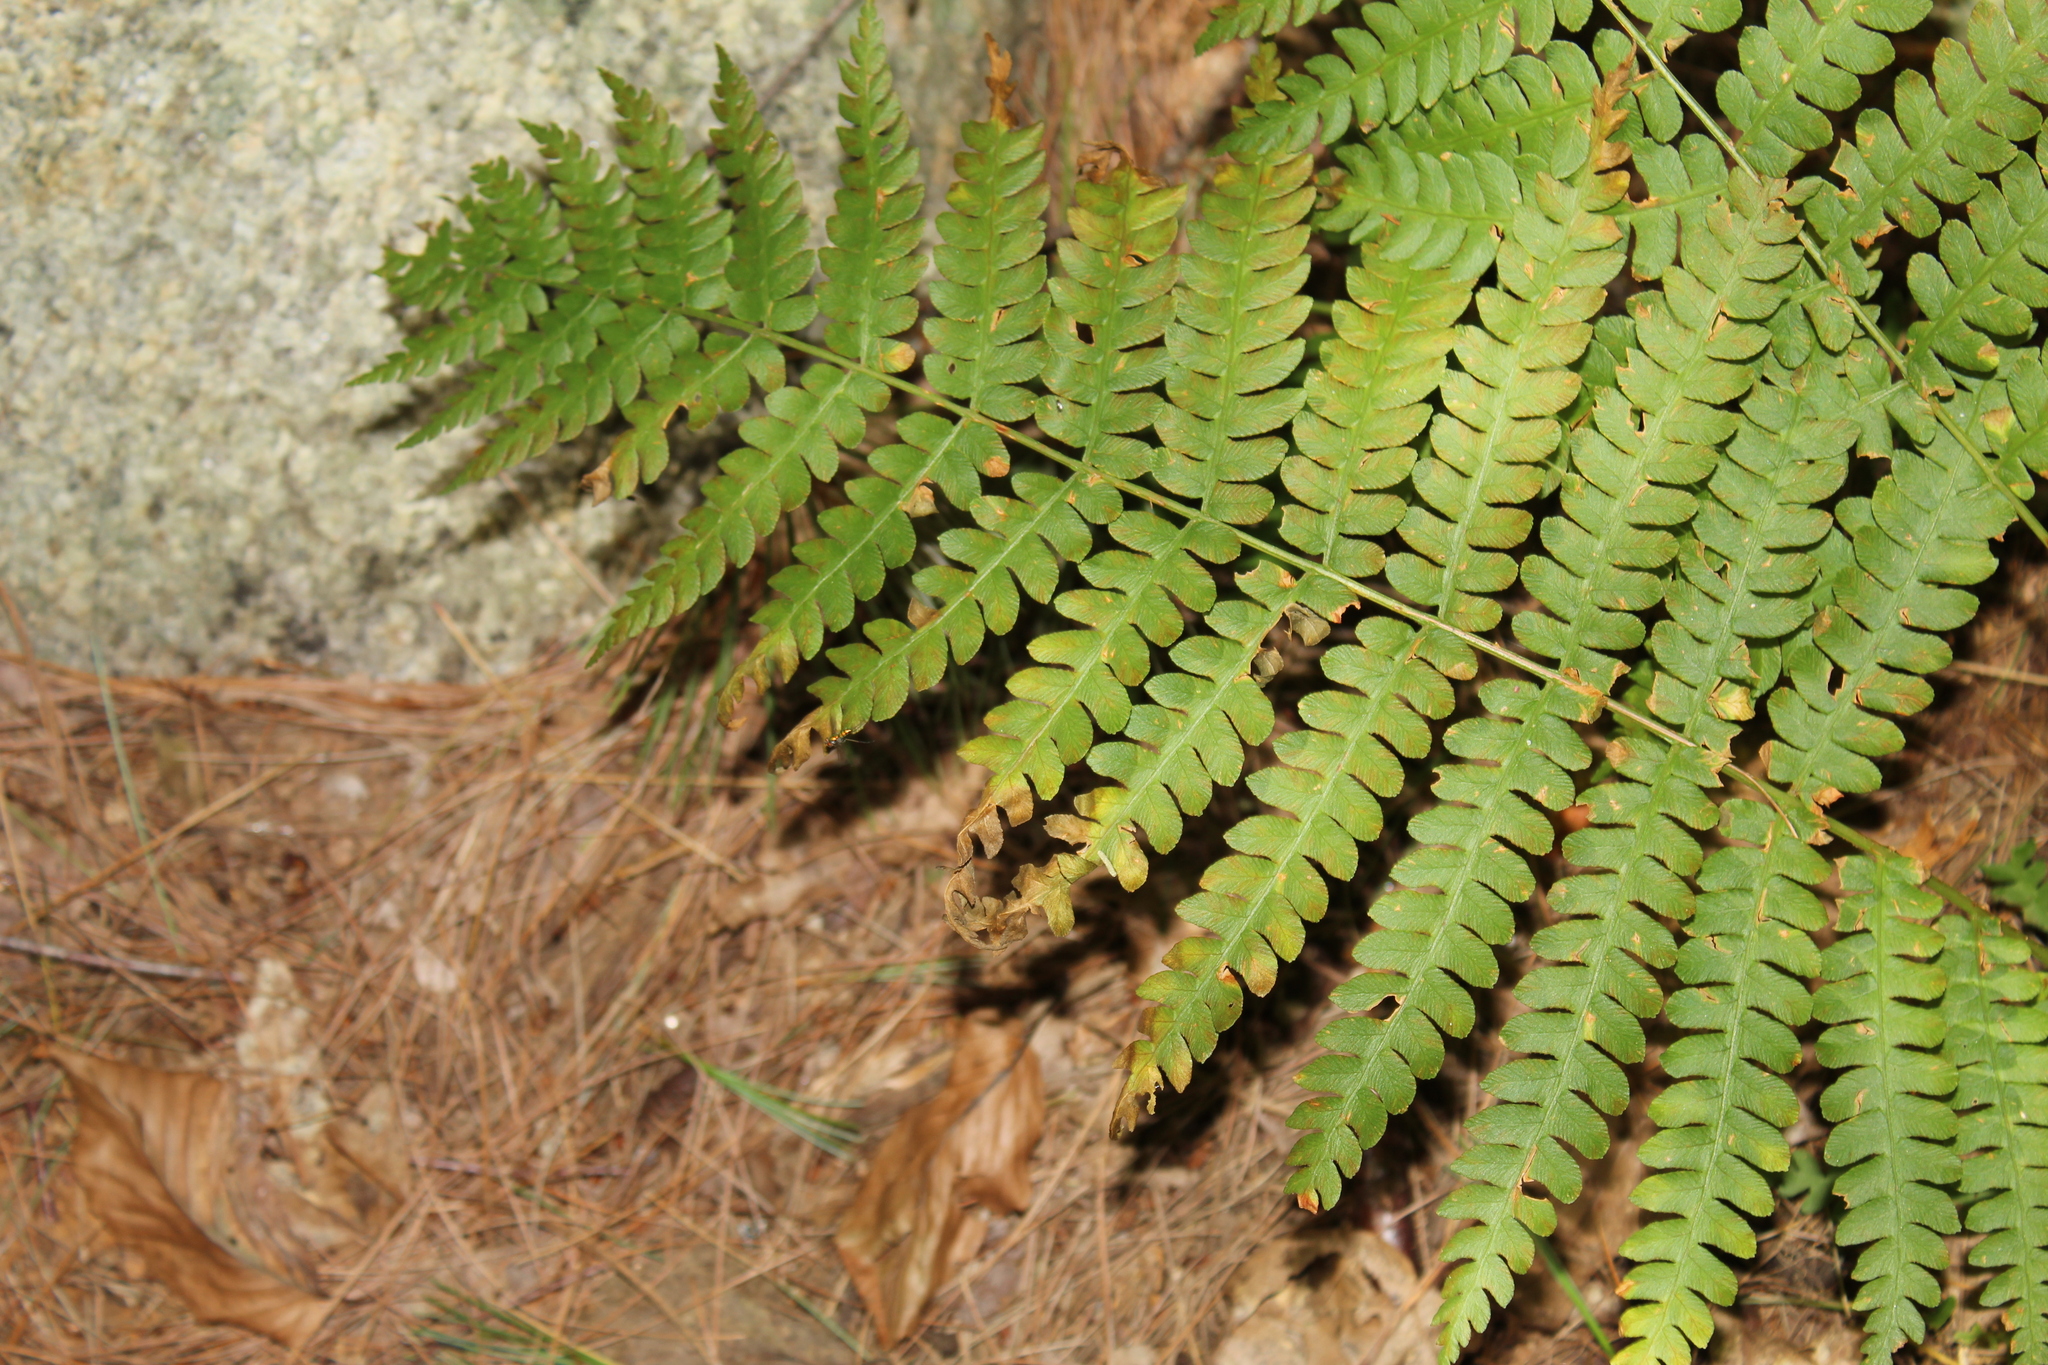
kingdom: Plantae
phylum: Tracheophyta
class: Polypodiopsida
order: Osmundales
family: Osmundaceae
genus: Osmundastrum
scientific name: Osmundastrum cinnamomeum
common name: Cinnamon fern
